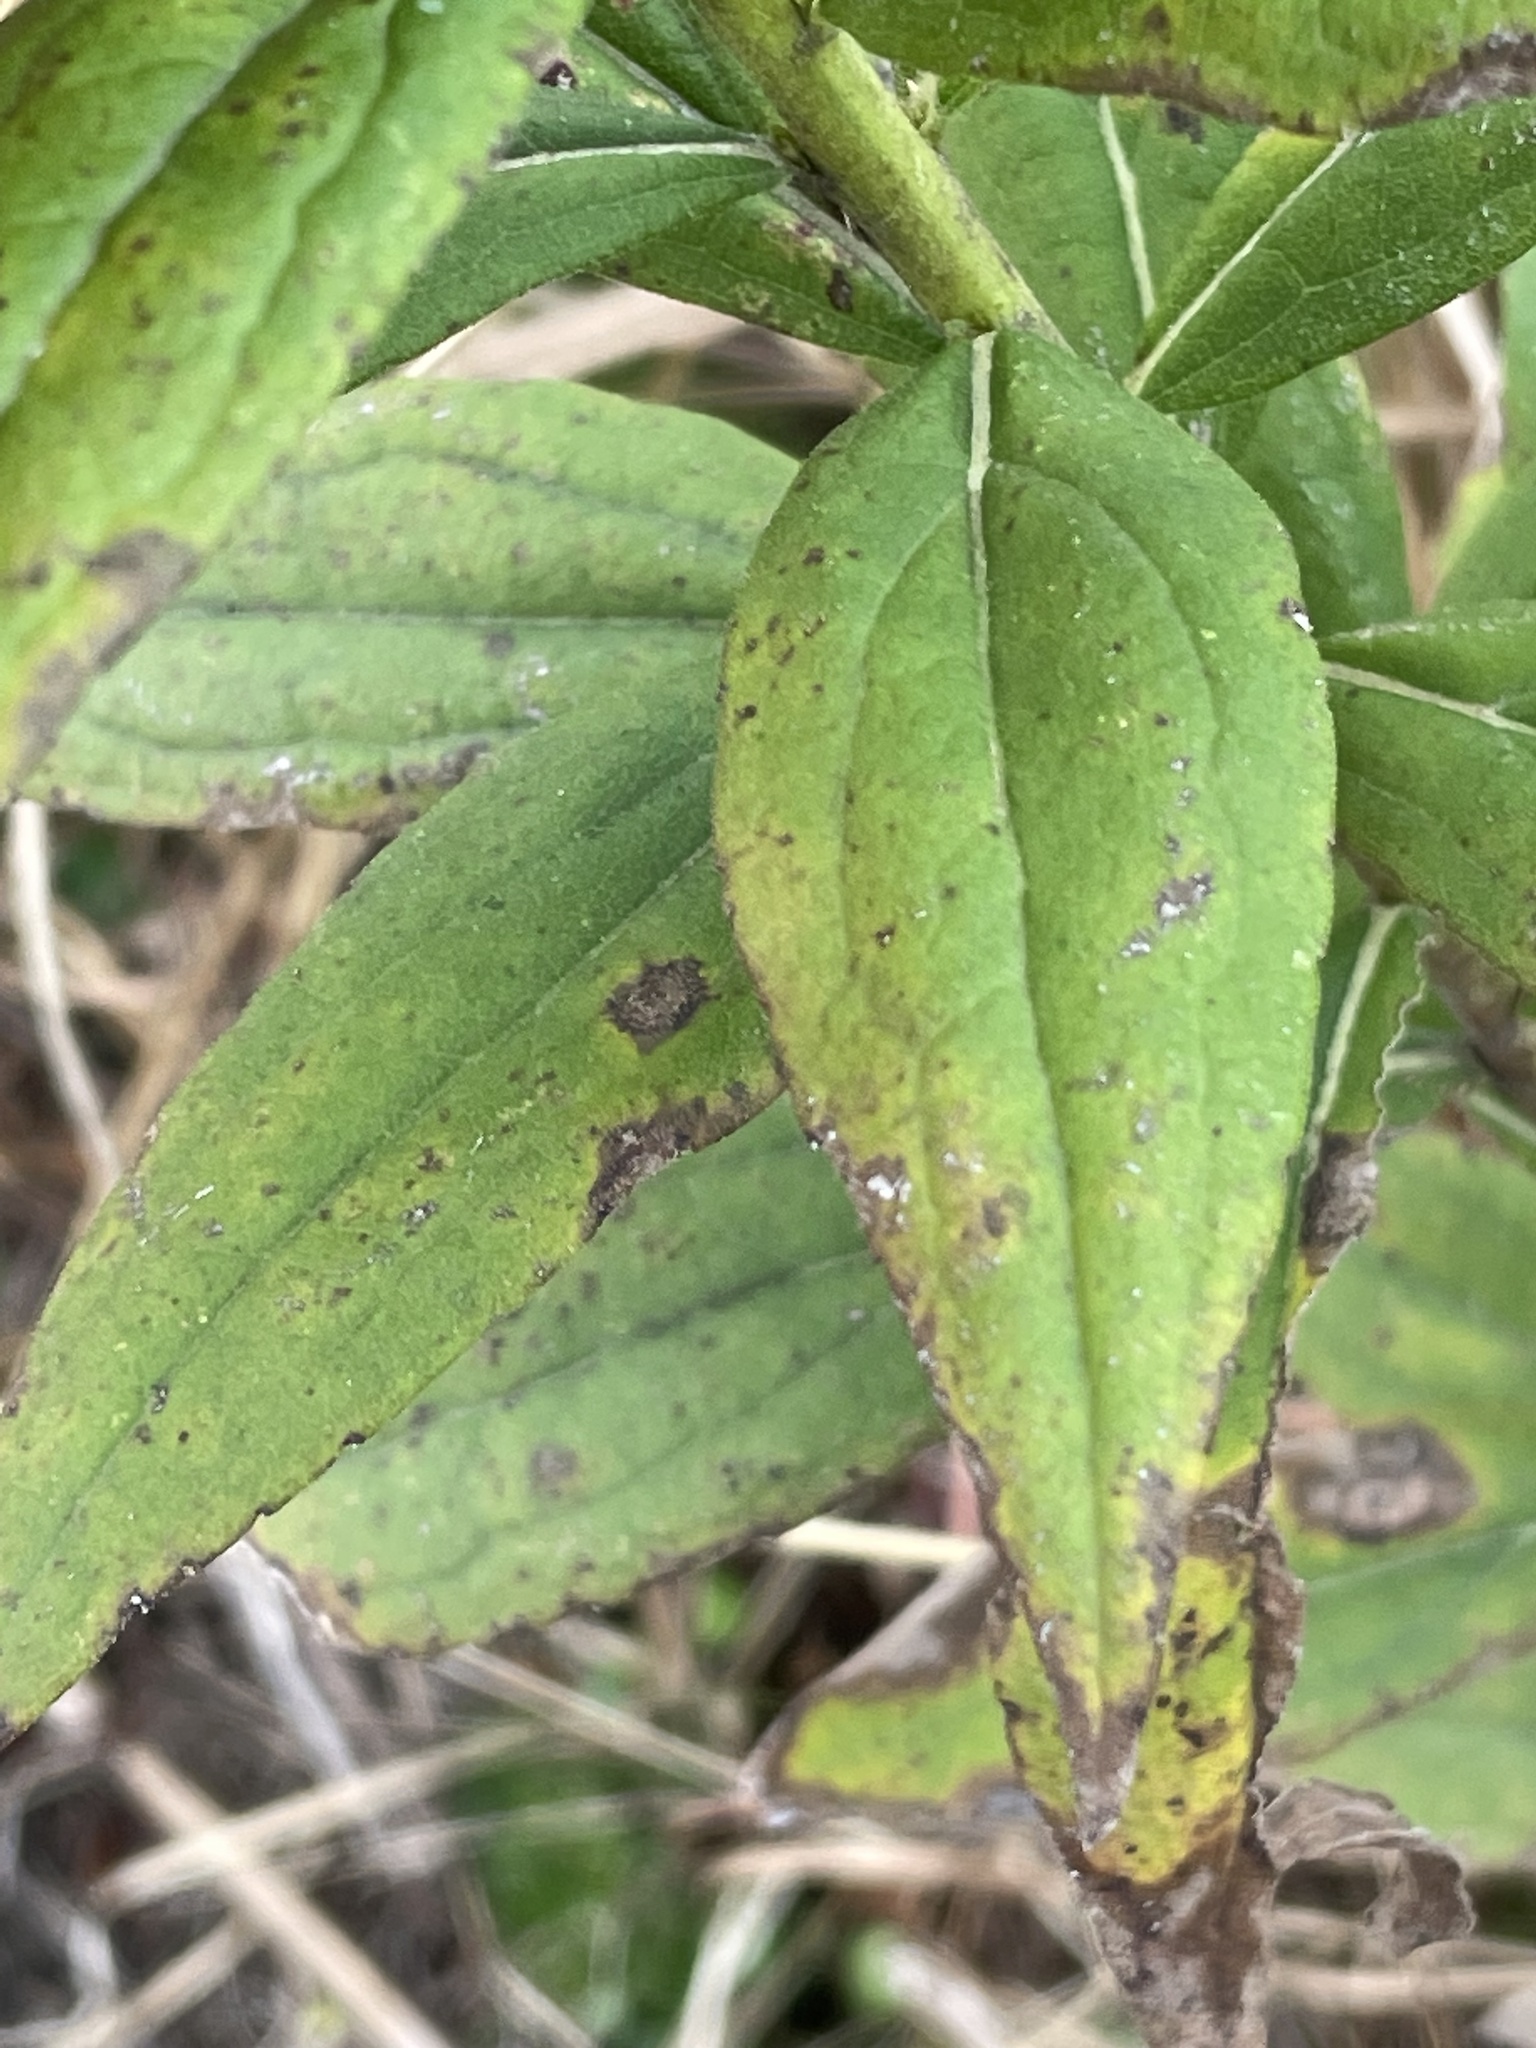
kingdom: Plantae
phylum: Tracheophyta
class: Magnoliopsida
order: Asterales
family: Asteraceae
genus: Solidago
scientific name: Solidago altissima
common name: Late goldenrod
